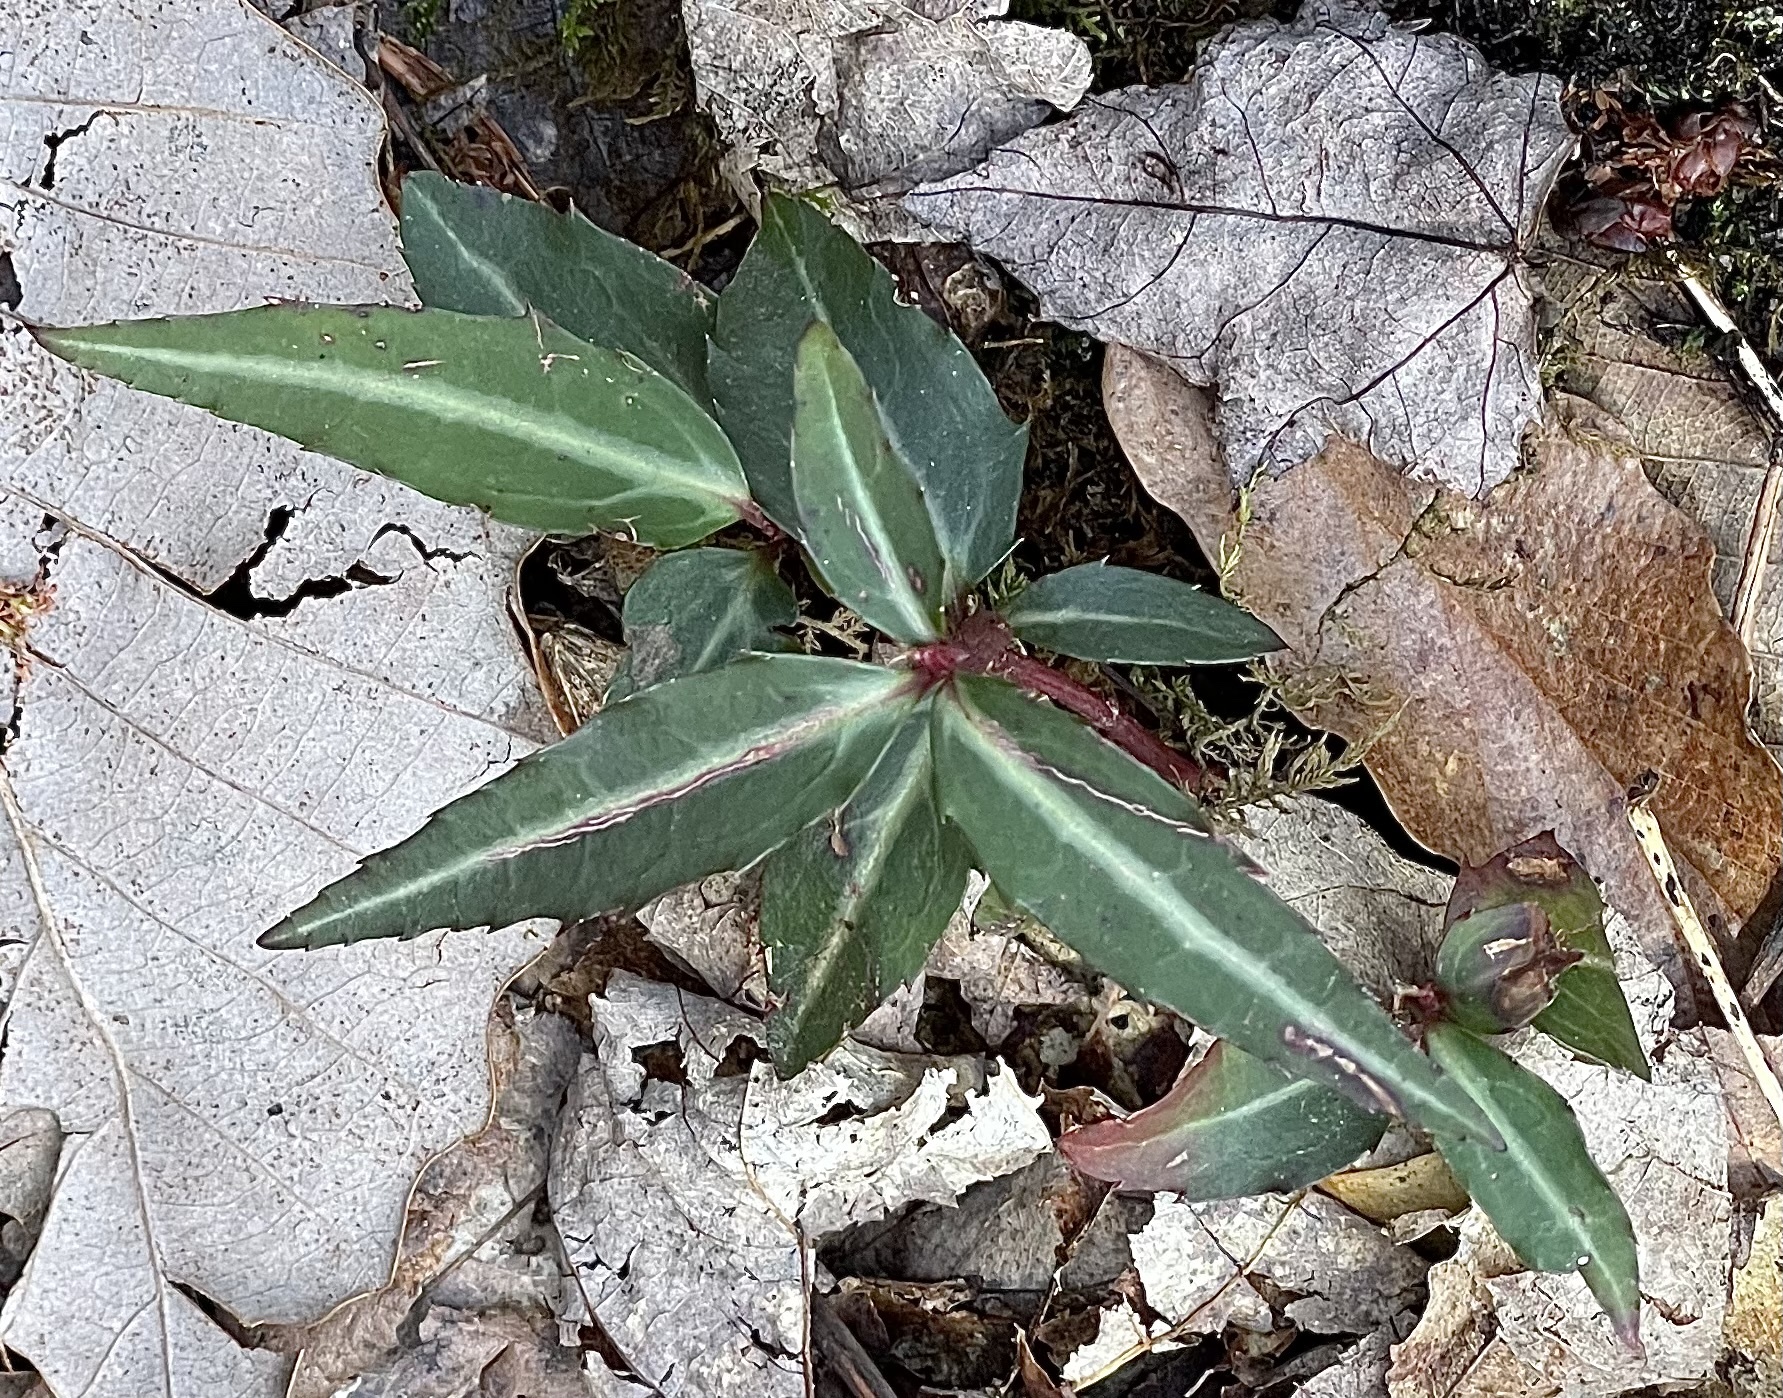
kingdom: Plantae
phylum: Tracheophyta
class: Magnoliopsida
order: Ericales
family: Ericaceae
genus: Chimaphila
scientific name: Chimaphila maculata
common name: Spotted pipsissewa
